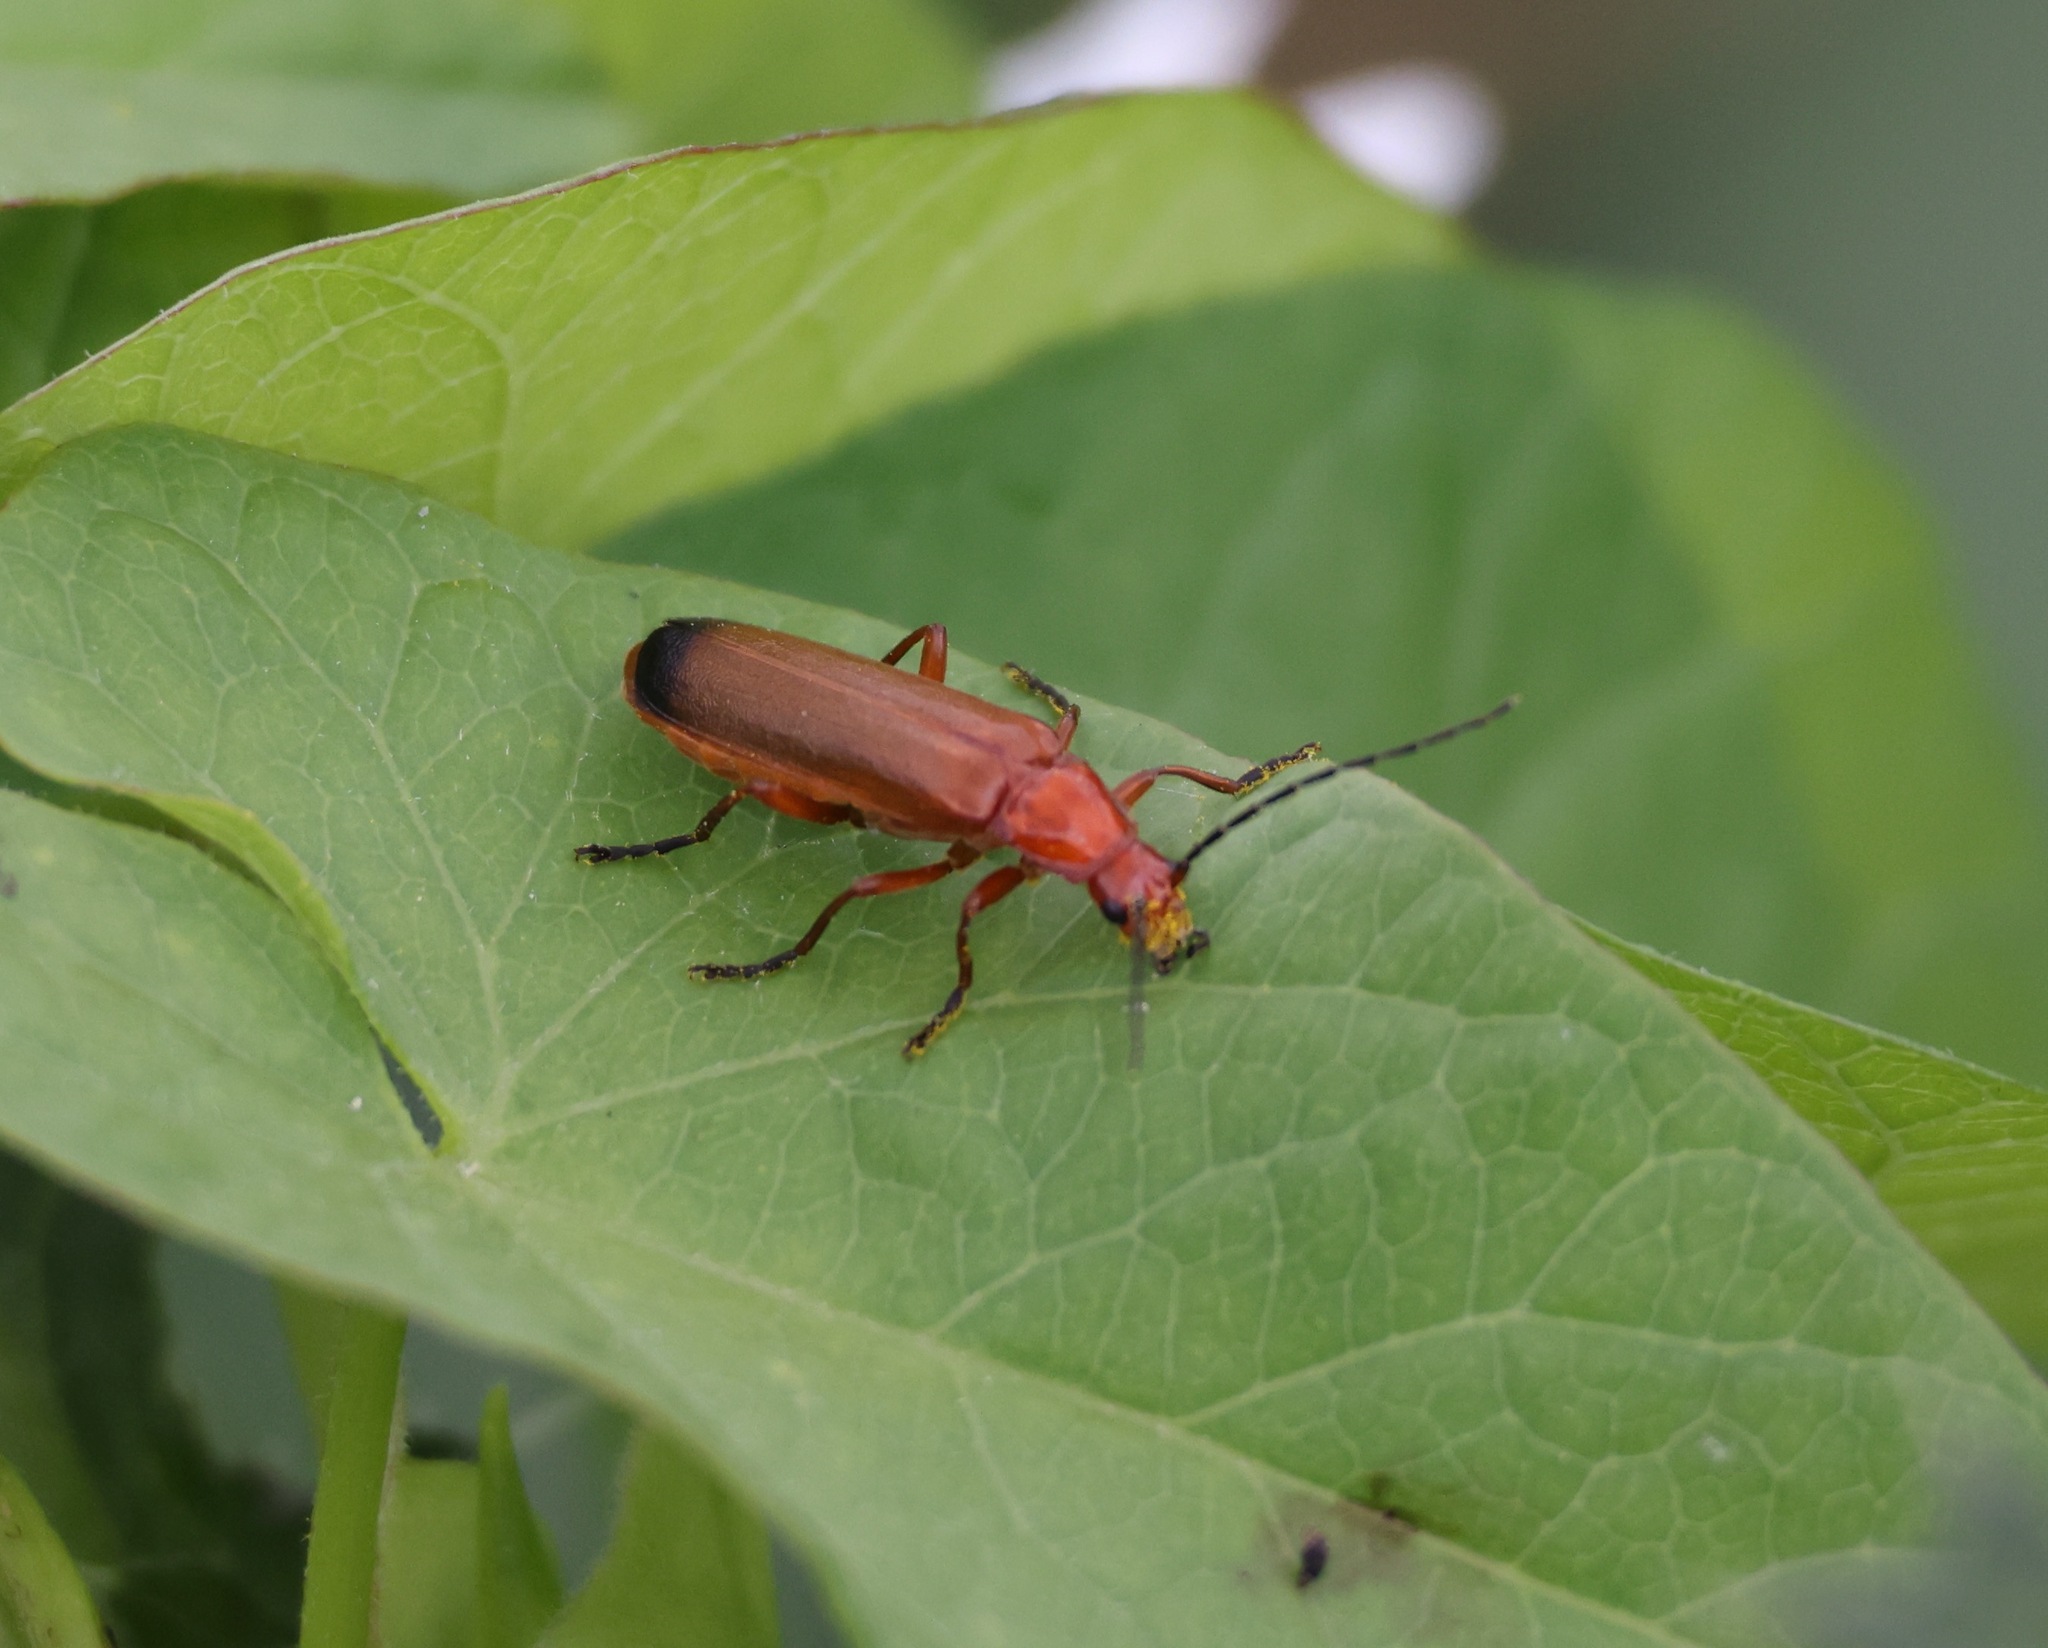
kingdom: Animalia
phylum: Arthropoda
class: Insecta
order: Coleoptera
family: Cantharidae
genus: Rhagonycha
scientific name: Rhagonycha fulva
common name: Common red soldier beetle
